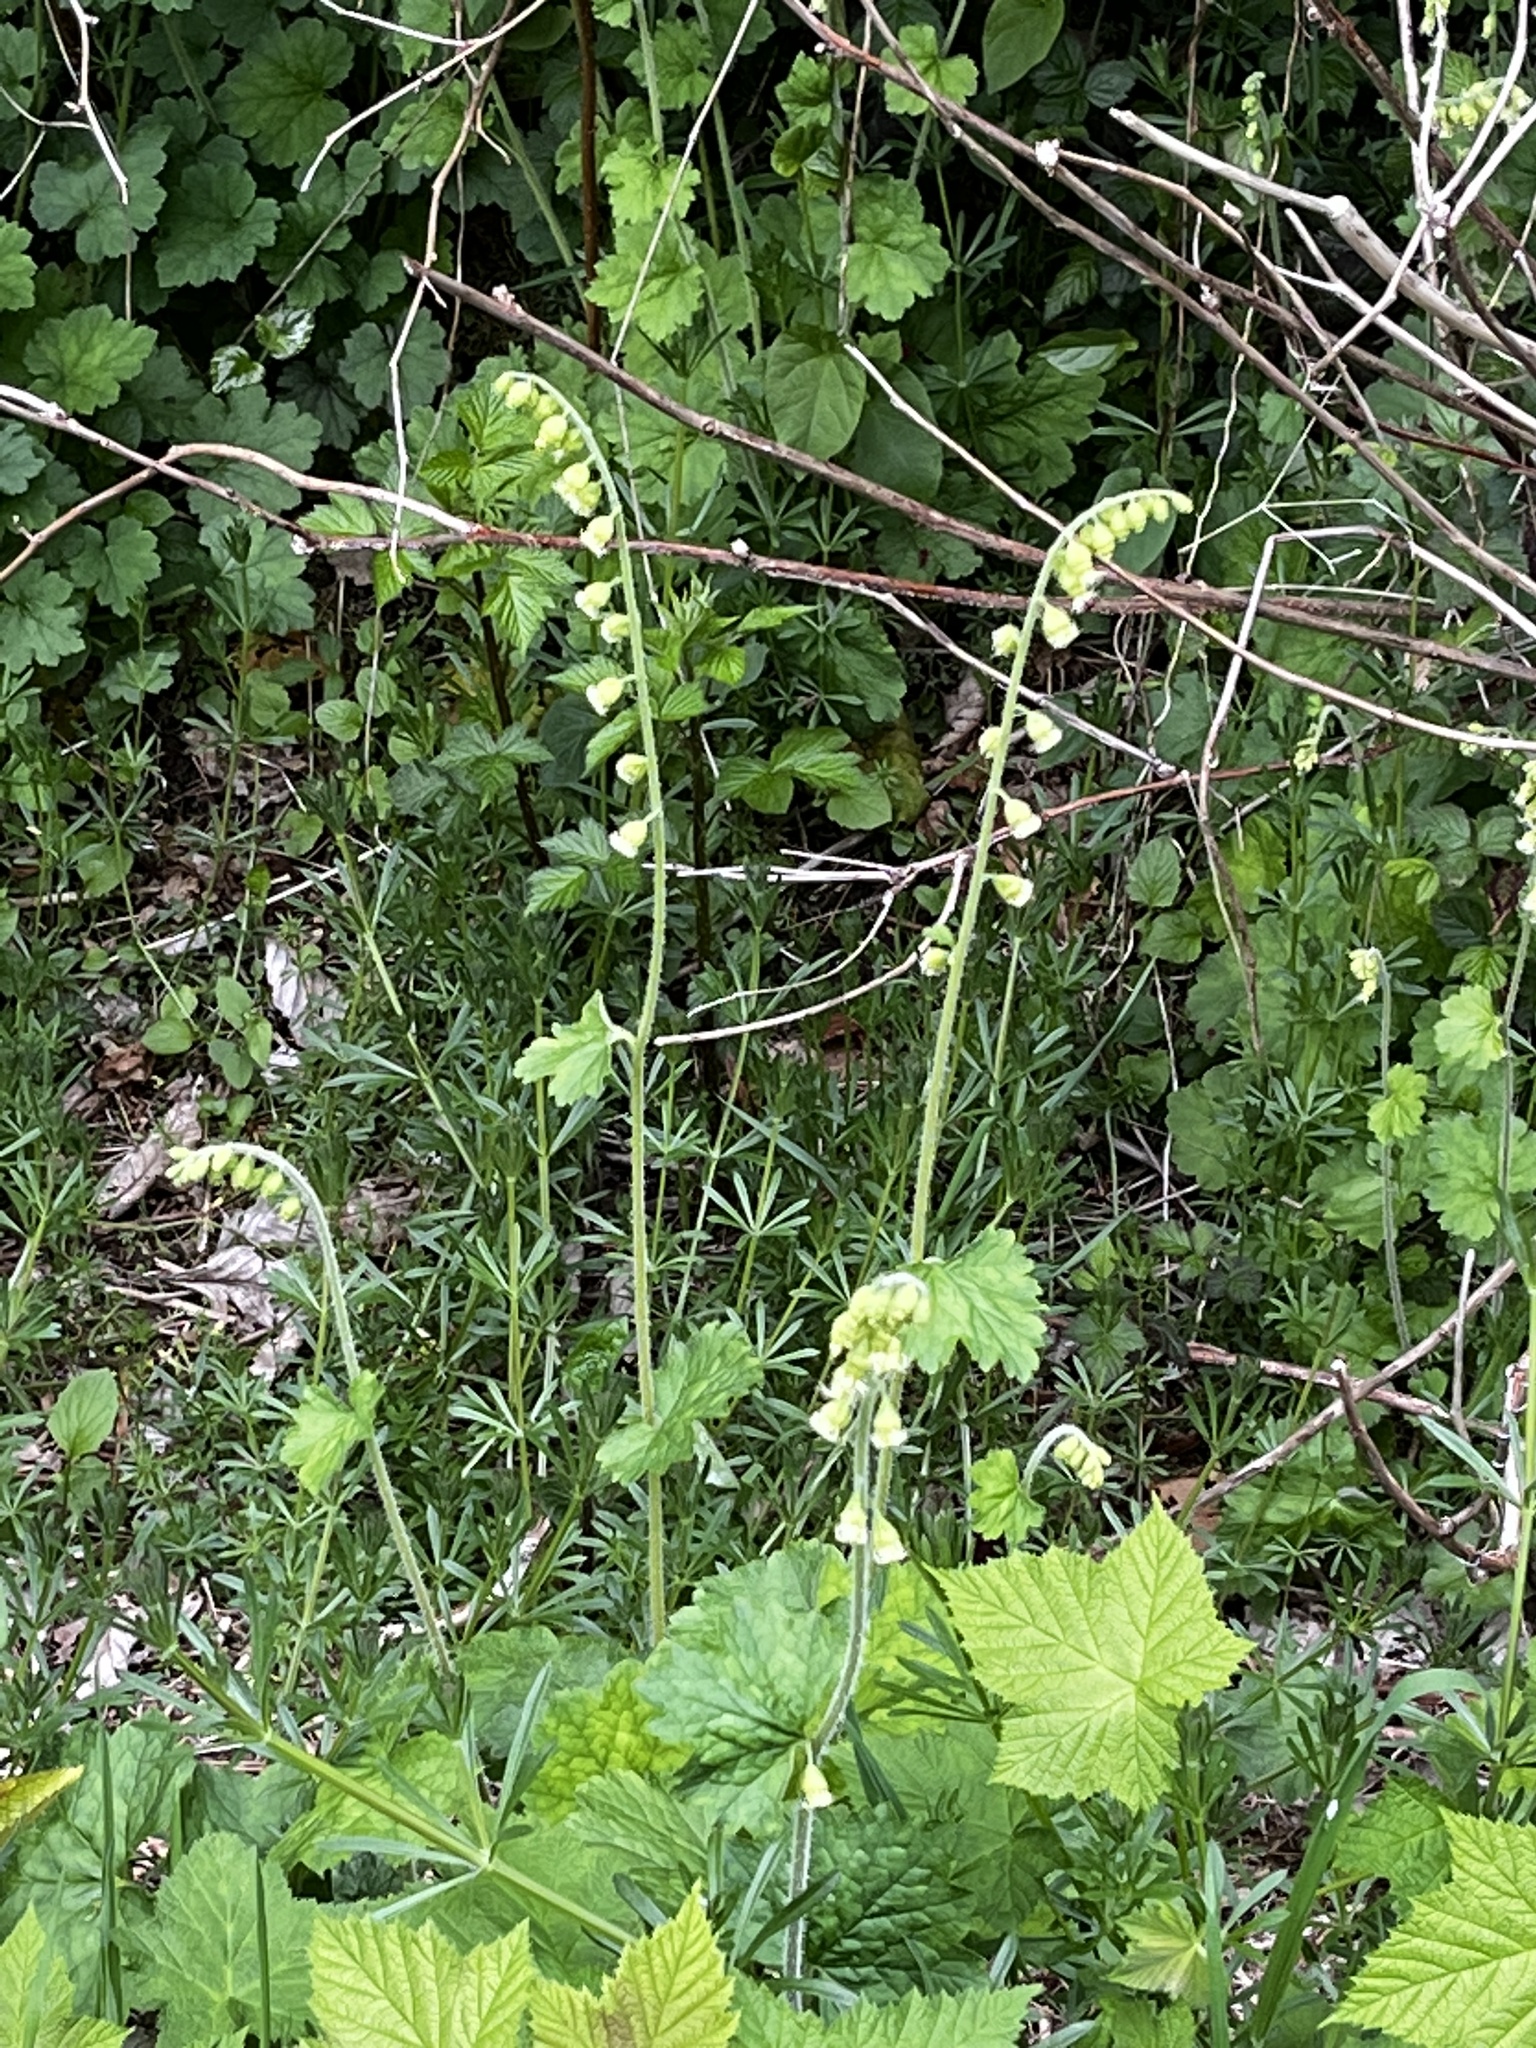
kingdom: Plantae
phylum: Tracheophyta
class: Magnoliopsida
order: Saxifragales
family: Saxifragaceae
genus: Tellima
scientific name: Tellima grandiflora
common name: Fringecups
